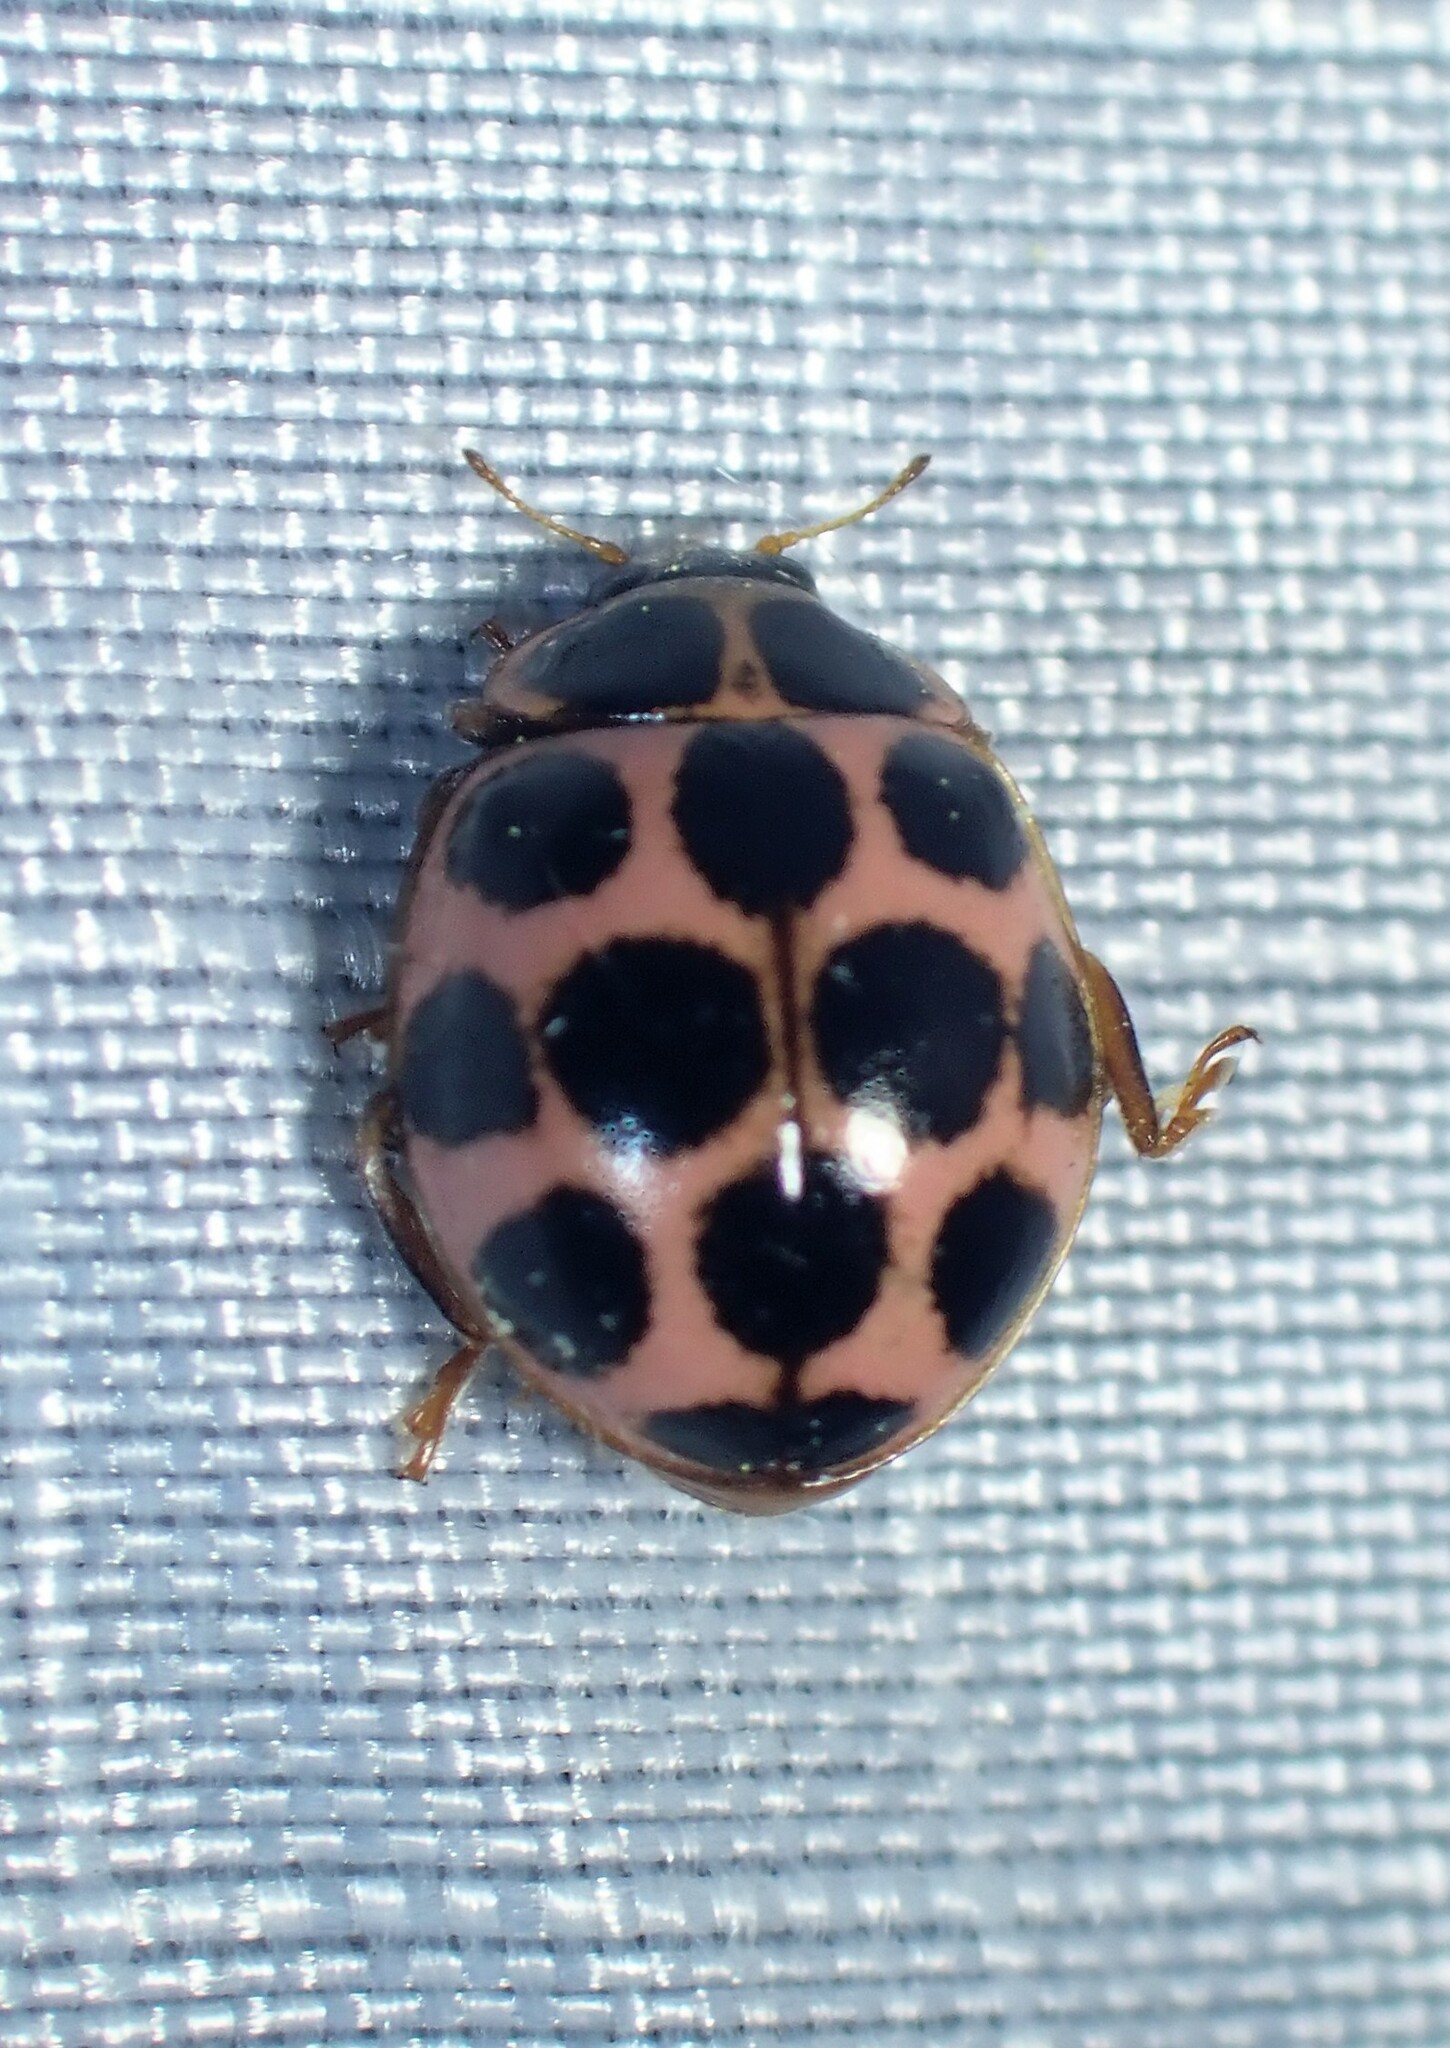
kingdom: Animalia
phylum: Arthropoda
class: Insecta
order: Coleoptera
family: Coccinellidae
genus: Calvia
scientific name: Calvia quatuordecimguttata
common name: Cream-spot ladybird
